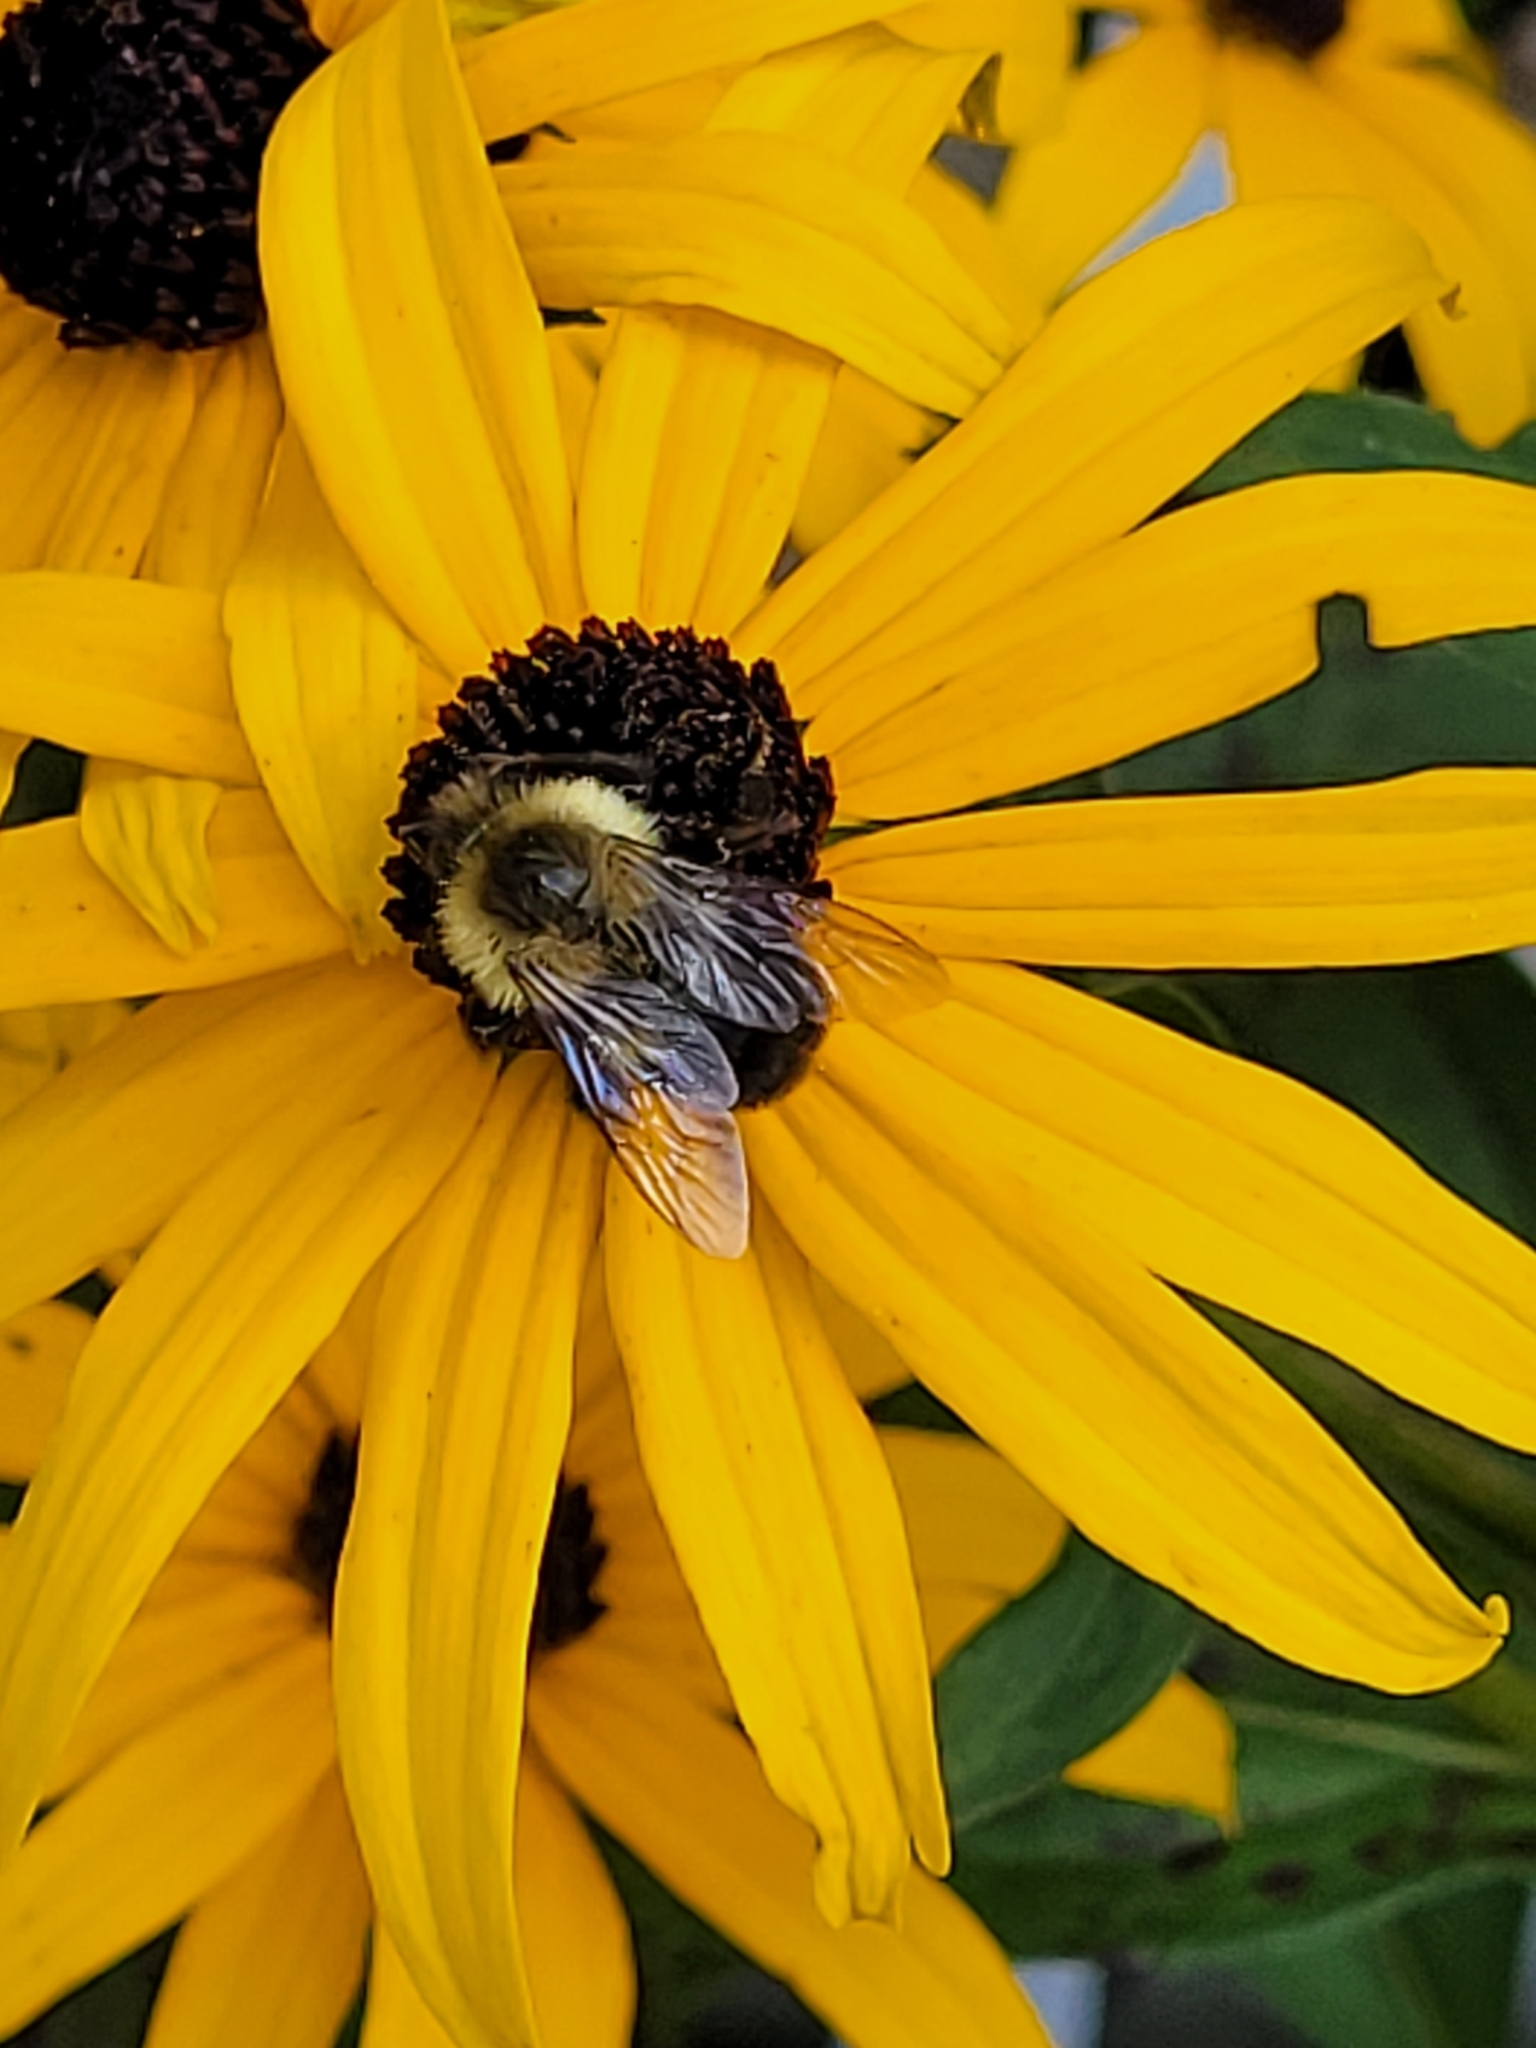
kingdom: Animalia
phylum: Arthropoda
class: Insecta
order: Hymenoptera
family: Apidae
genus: Bombus
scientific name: Bombus impatiens
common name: Common eastern bumble bee
